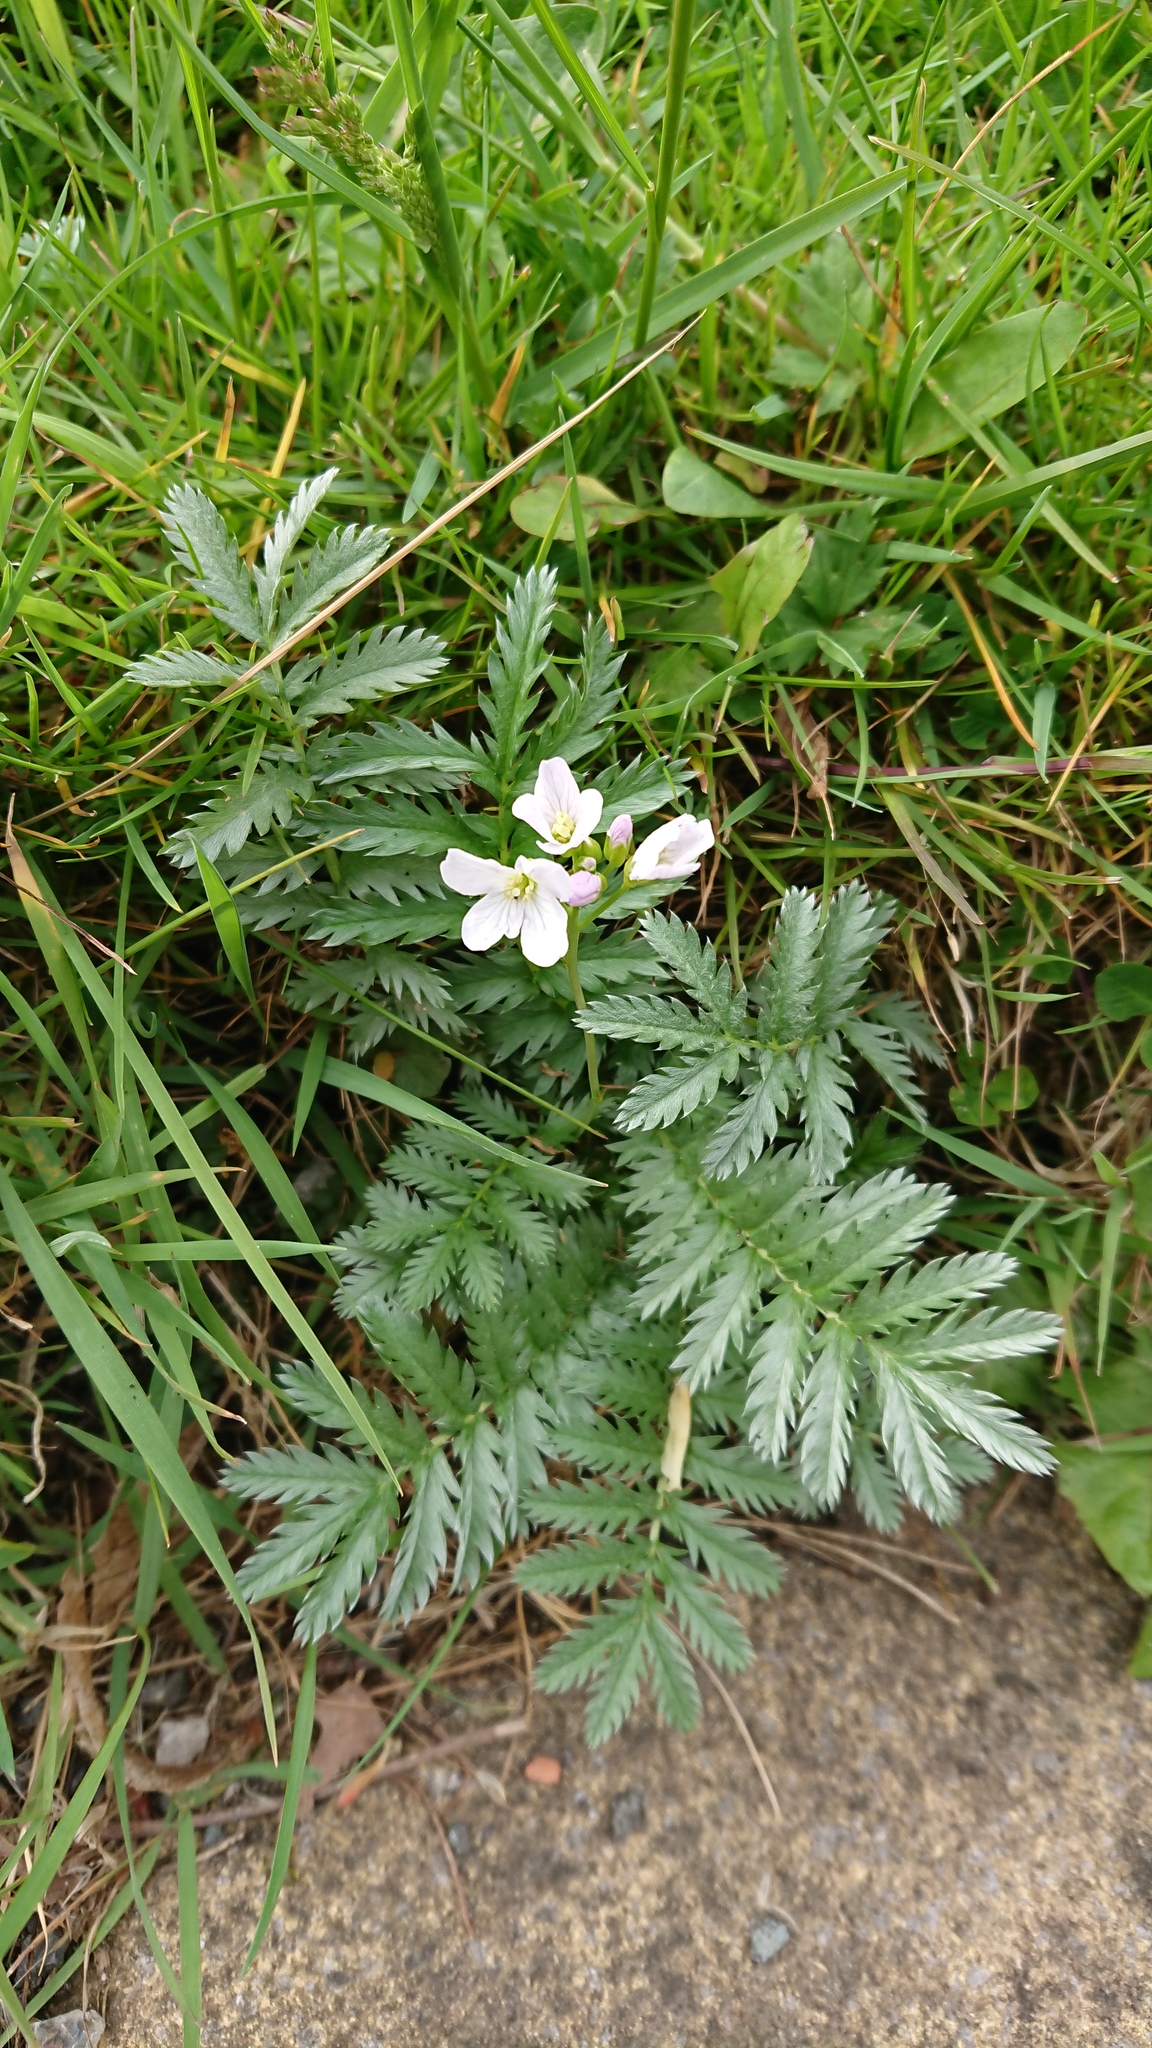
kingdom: Plantae
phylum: Tracheophyta
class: Magnoliopsida
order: Rosales
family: Rosaceae
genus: Argentina
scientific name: Argentina anserina
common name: Common silverweed
